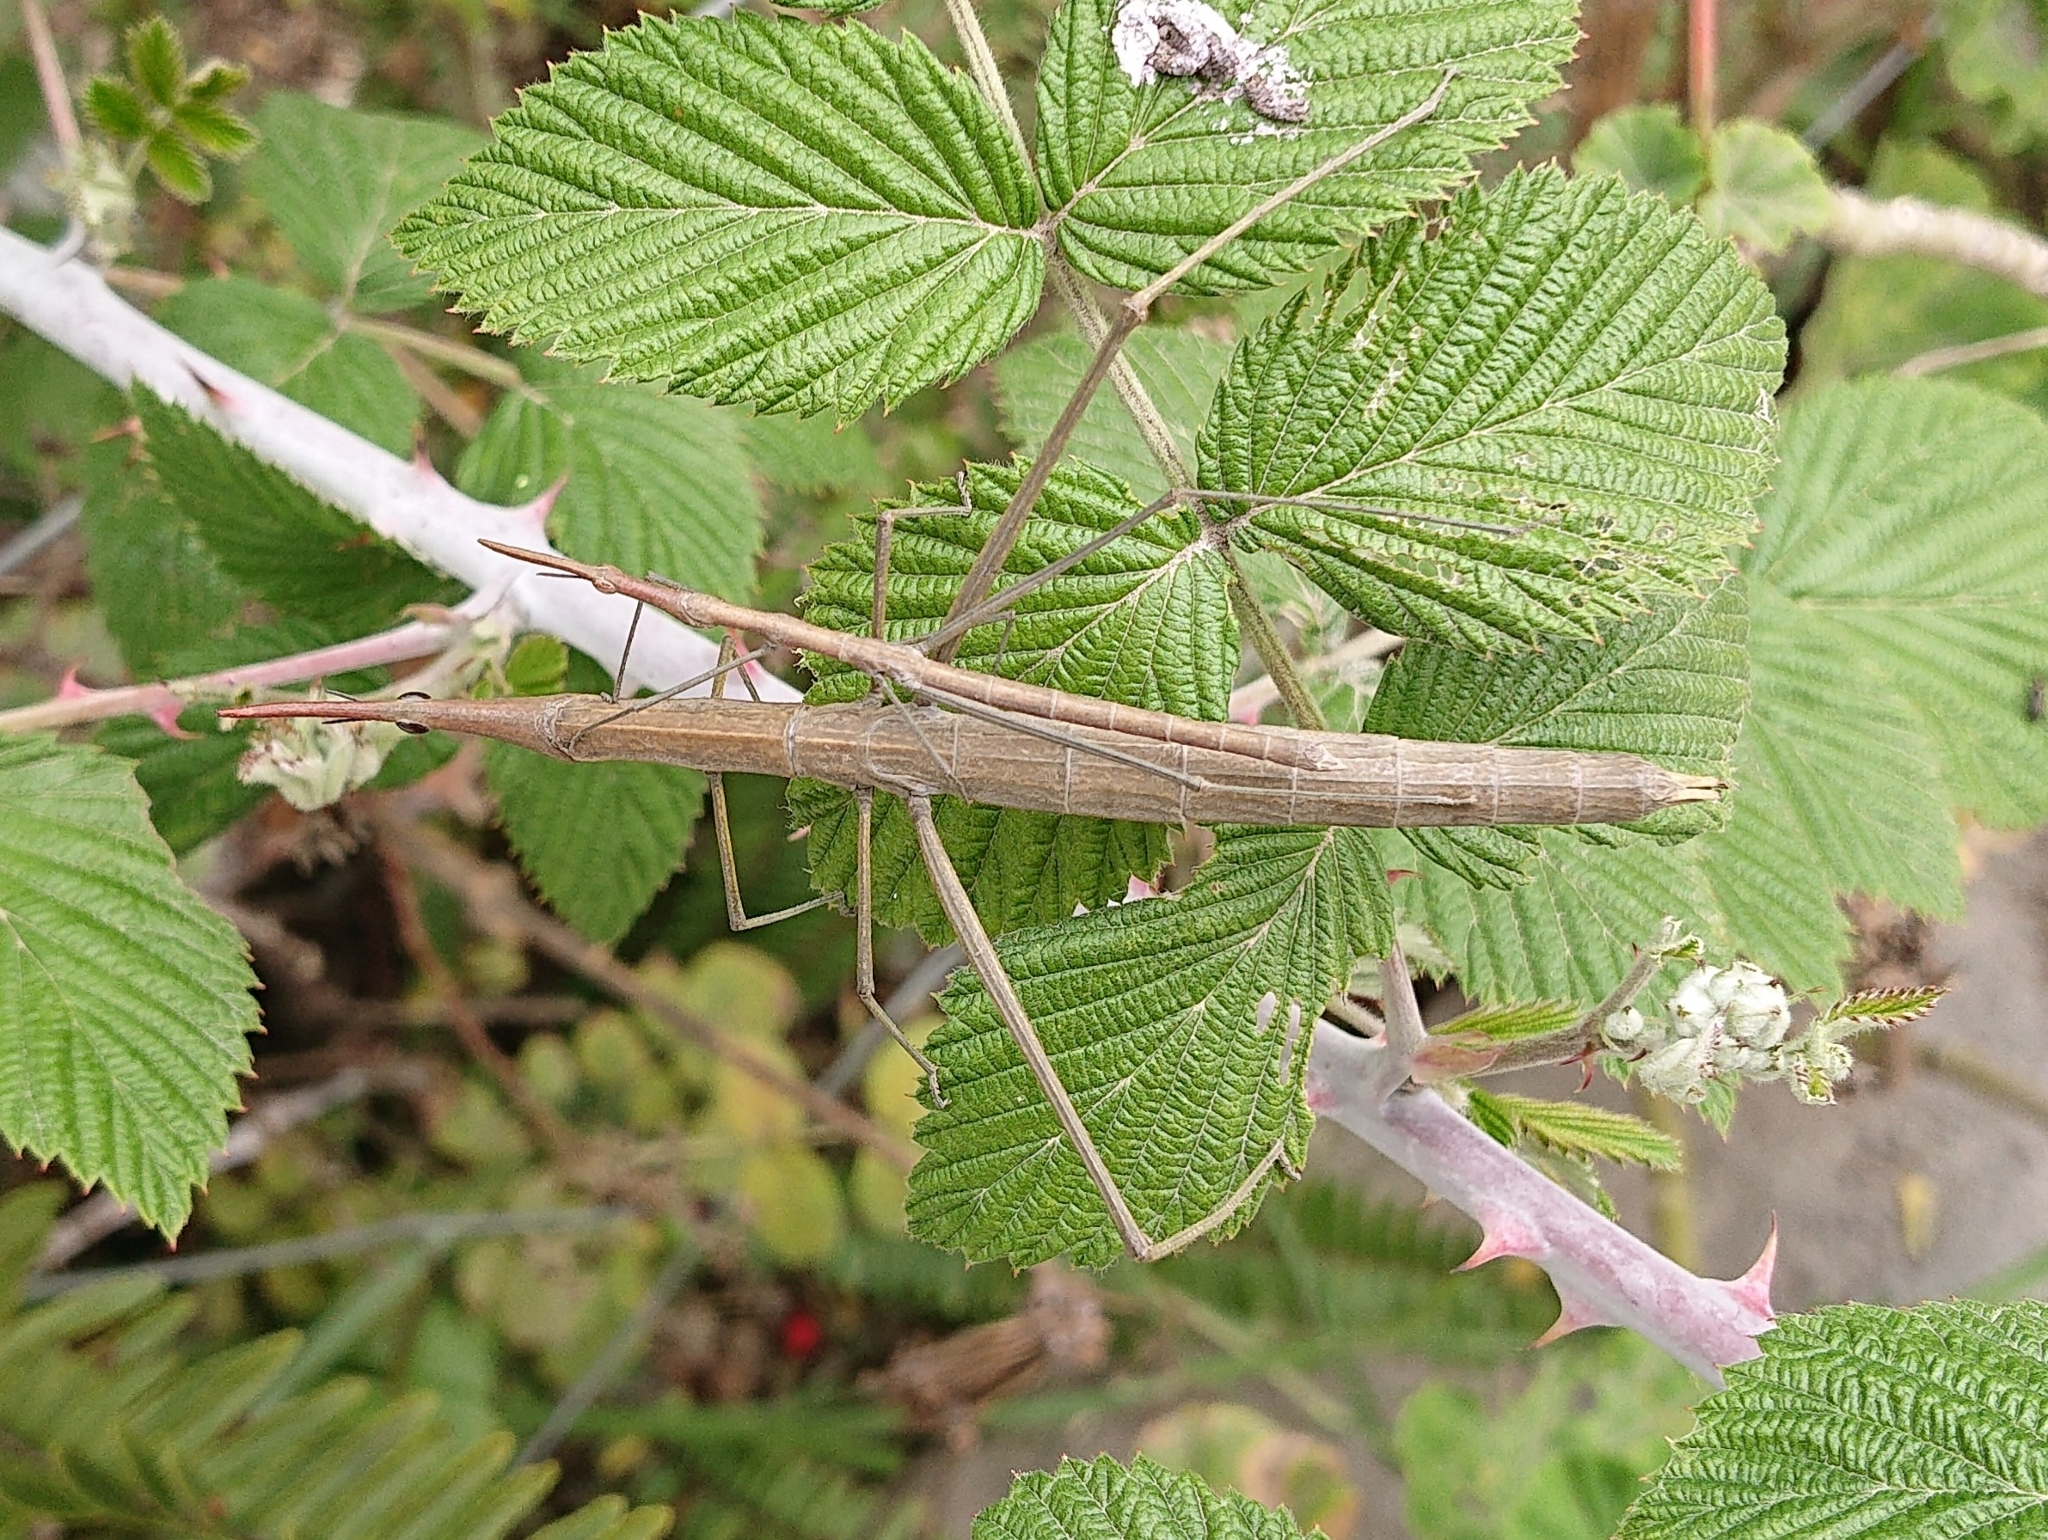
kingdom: Animalia
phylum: Arthropoda
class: Insecta
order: Orthoptera
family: Proscopiidae
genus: Microcoema
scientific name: Microcoema acuminata
